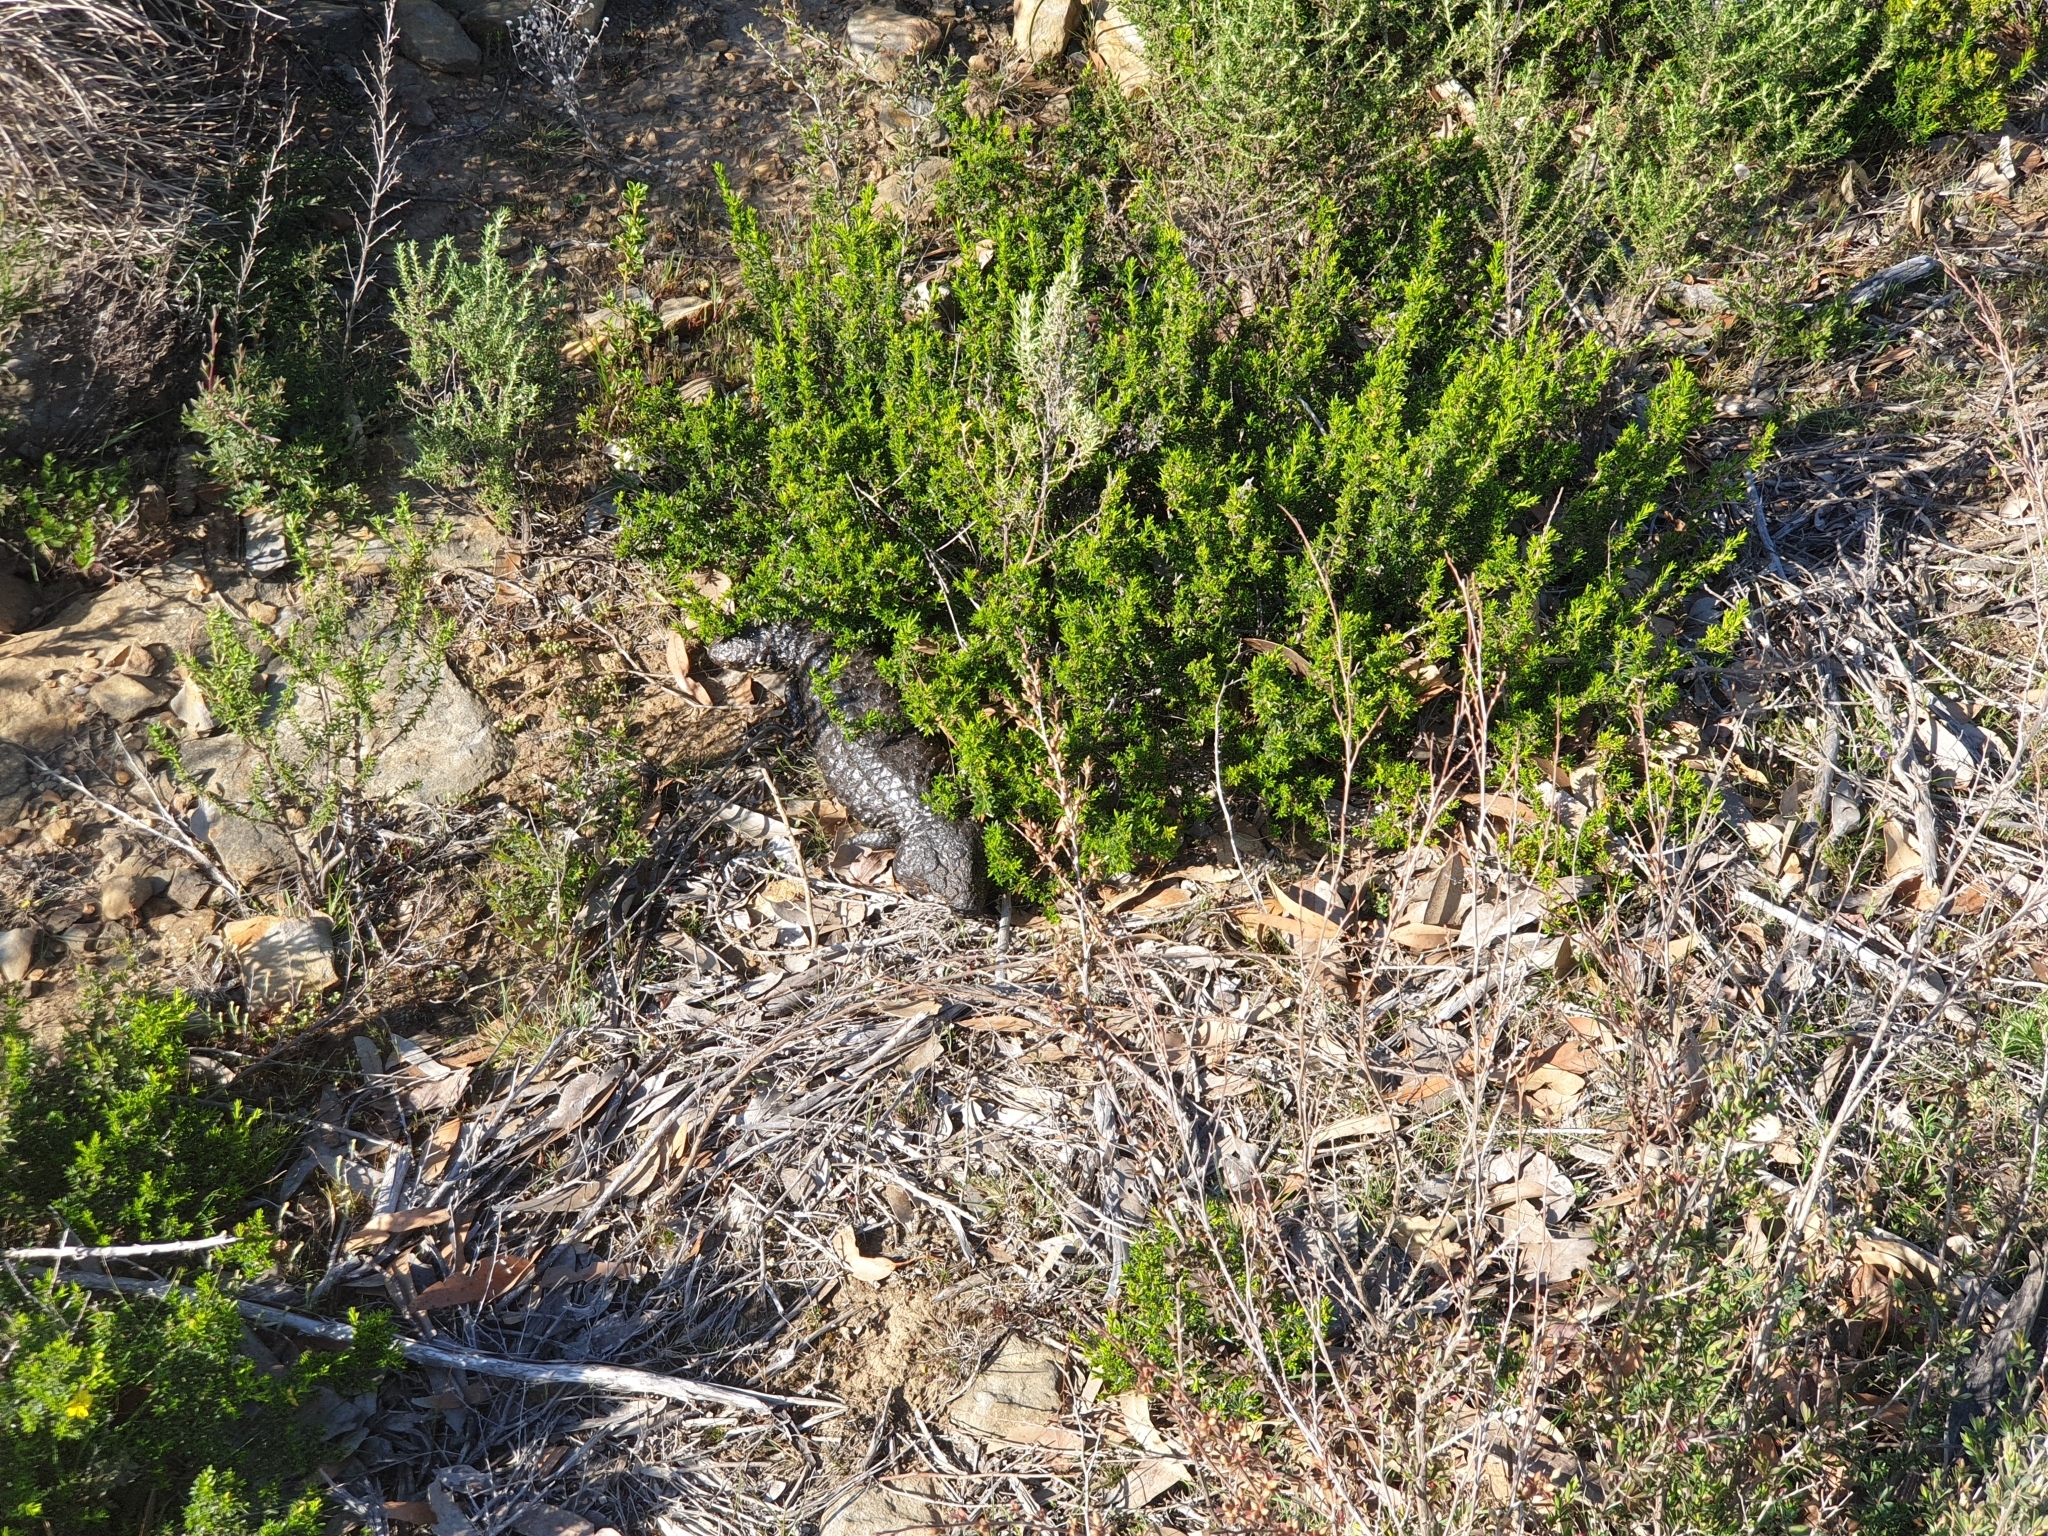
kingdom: Animalia
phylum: Chordata
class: Squamata
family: Scincidae
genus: Tiliqua
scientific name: Tiliqua rugosa
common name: Pinecone lizard
